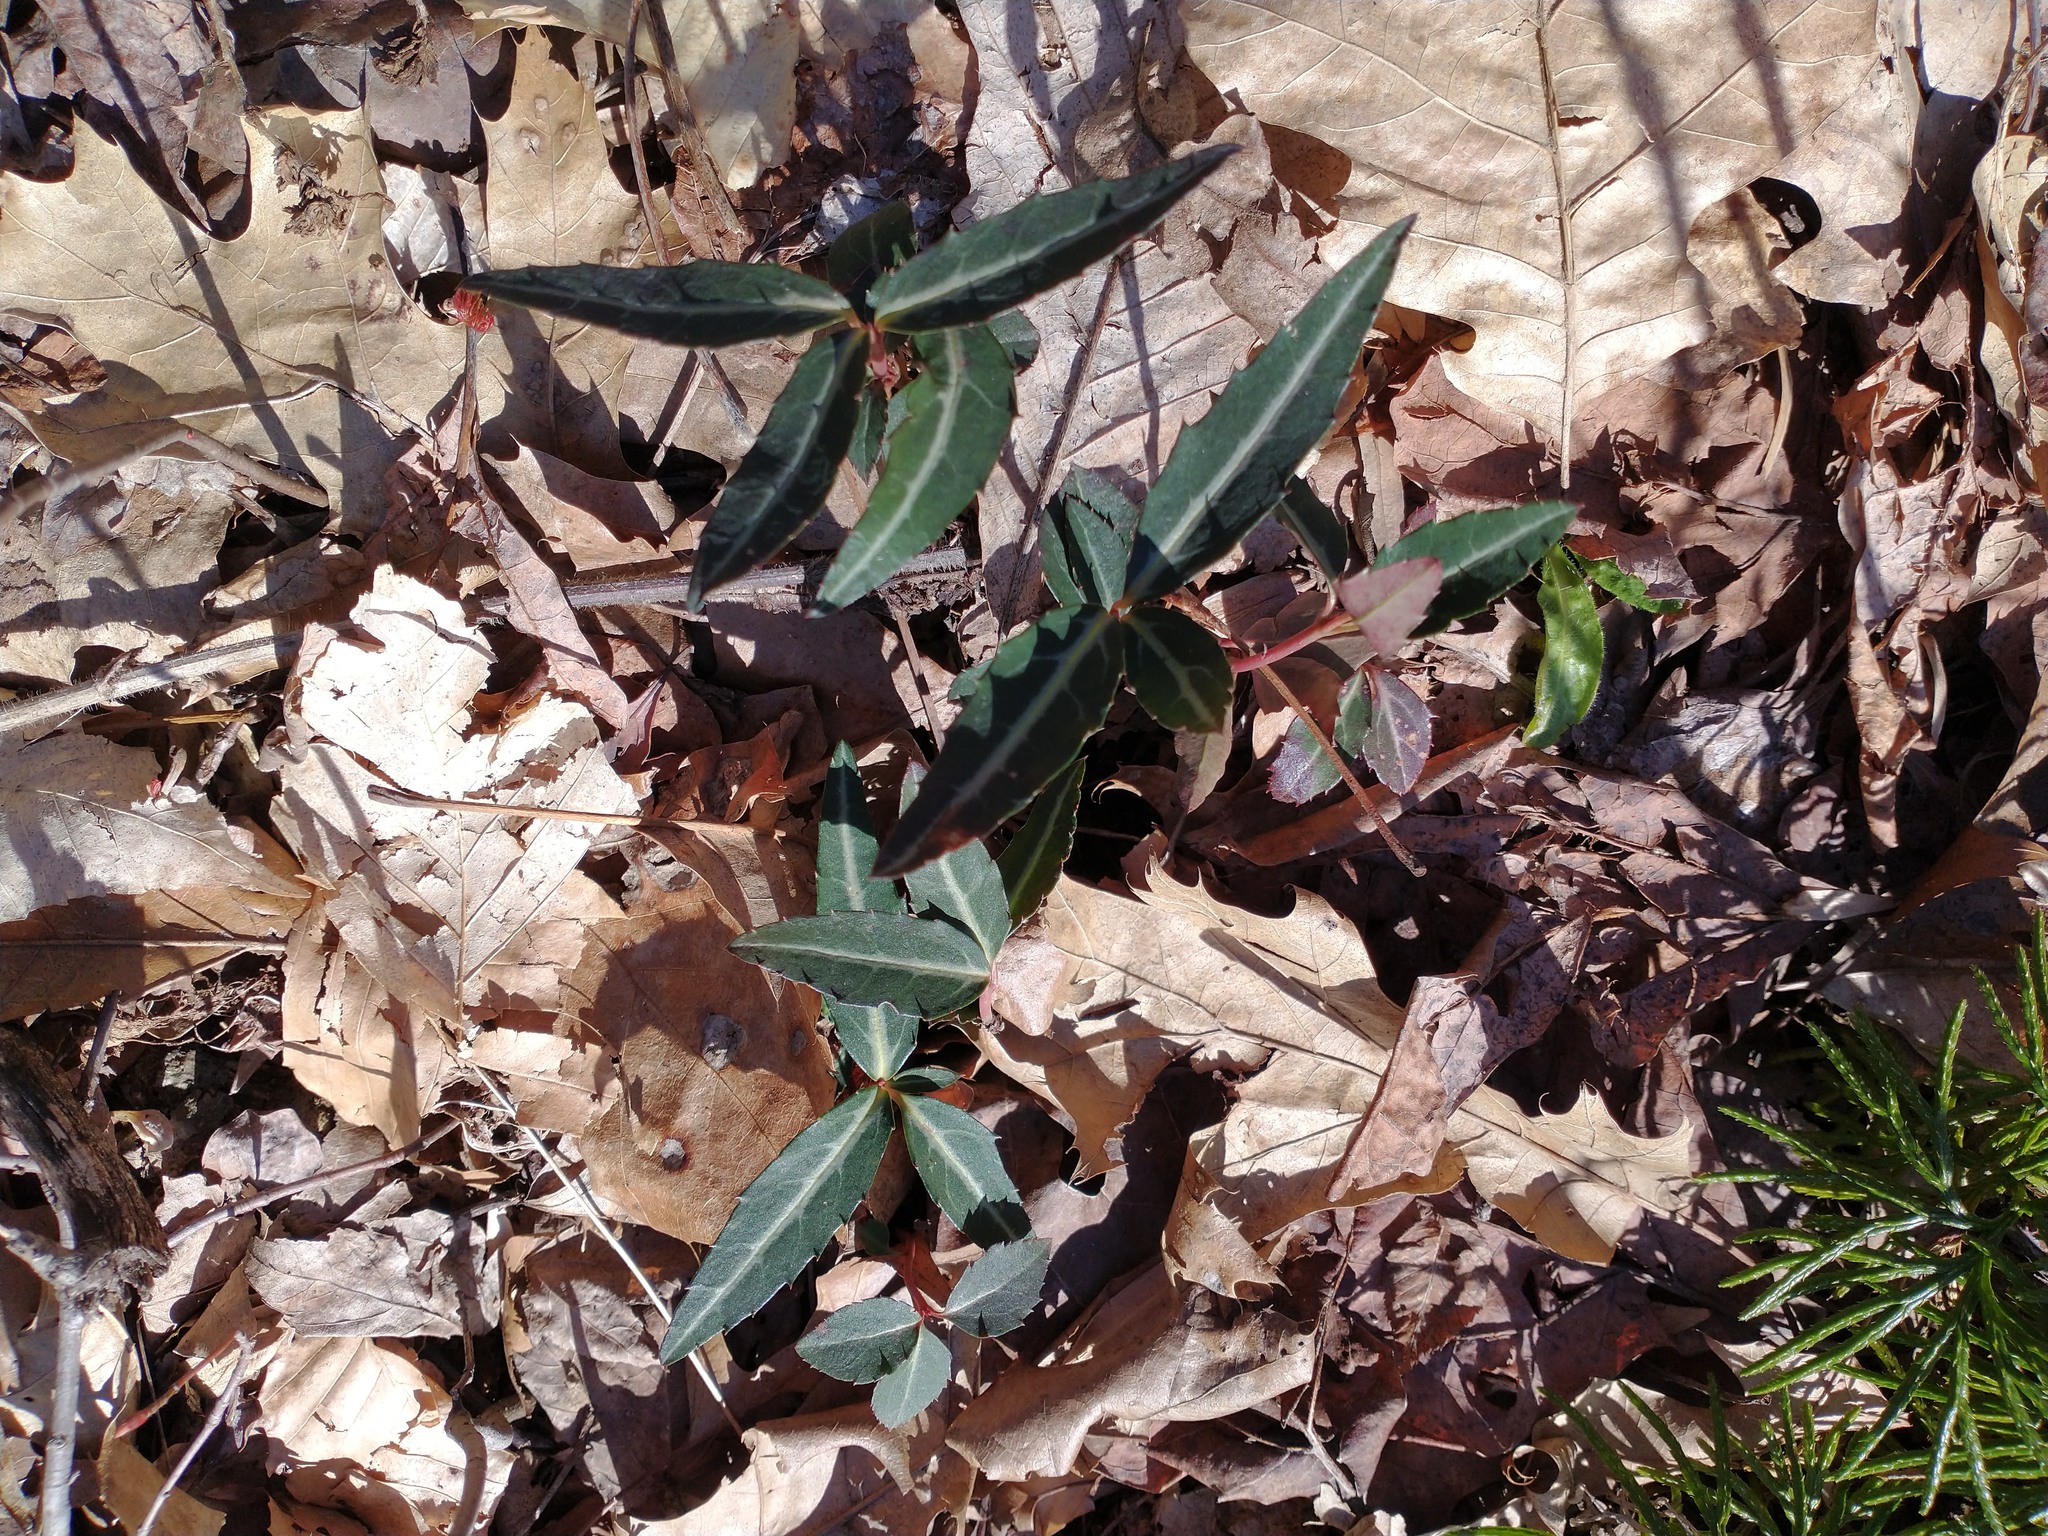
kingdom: Plantae
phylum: Tracheophyta
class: Magnoliopsida
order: Ericales
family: Ericaceae
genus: Chimaphila
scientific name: Chimaphila maculata
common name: Spotted pipsissewa
